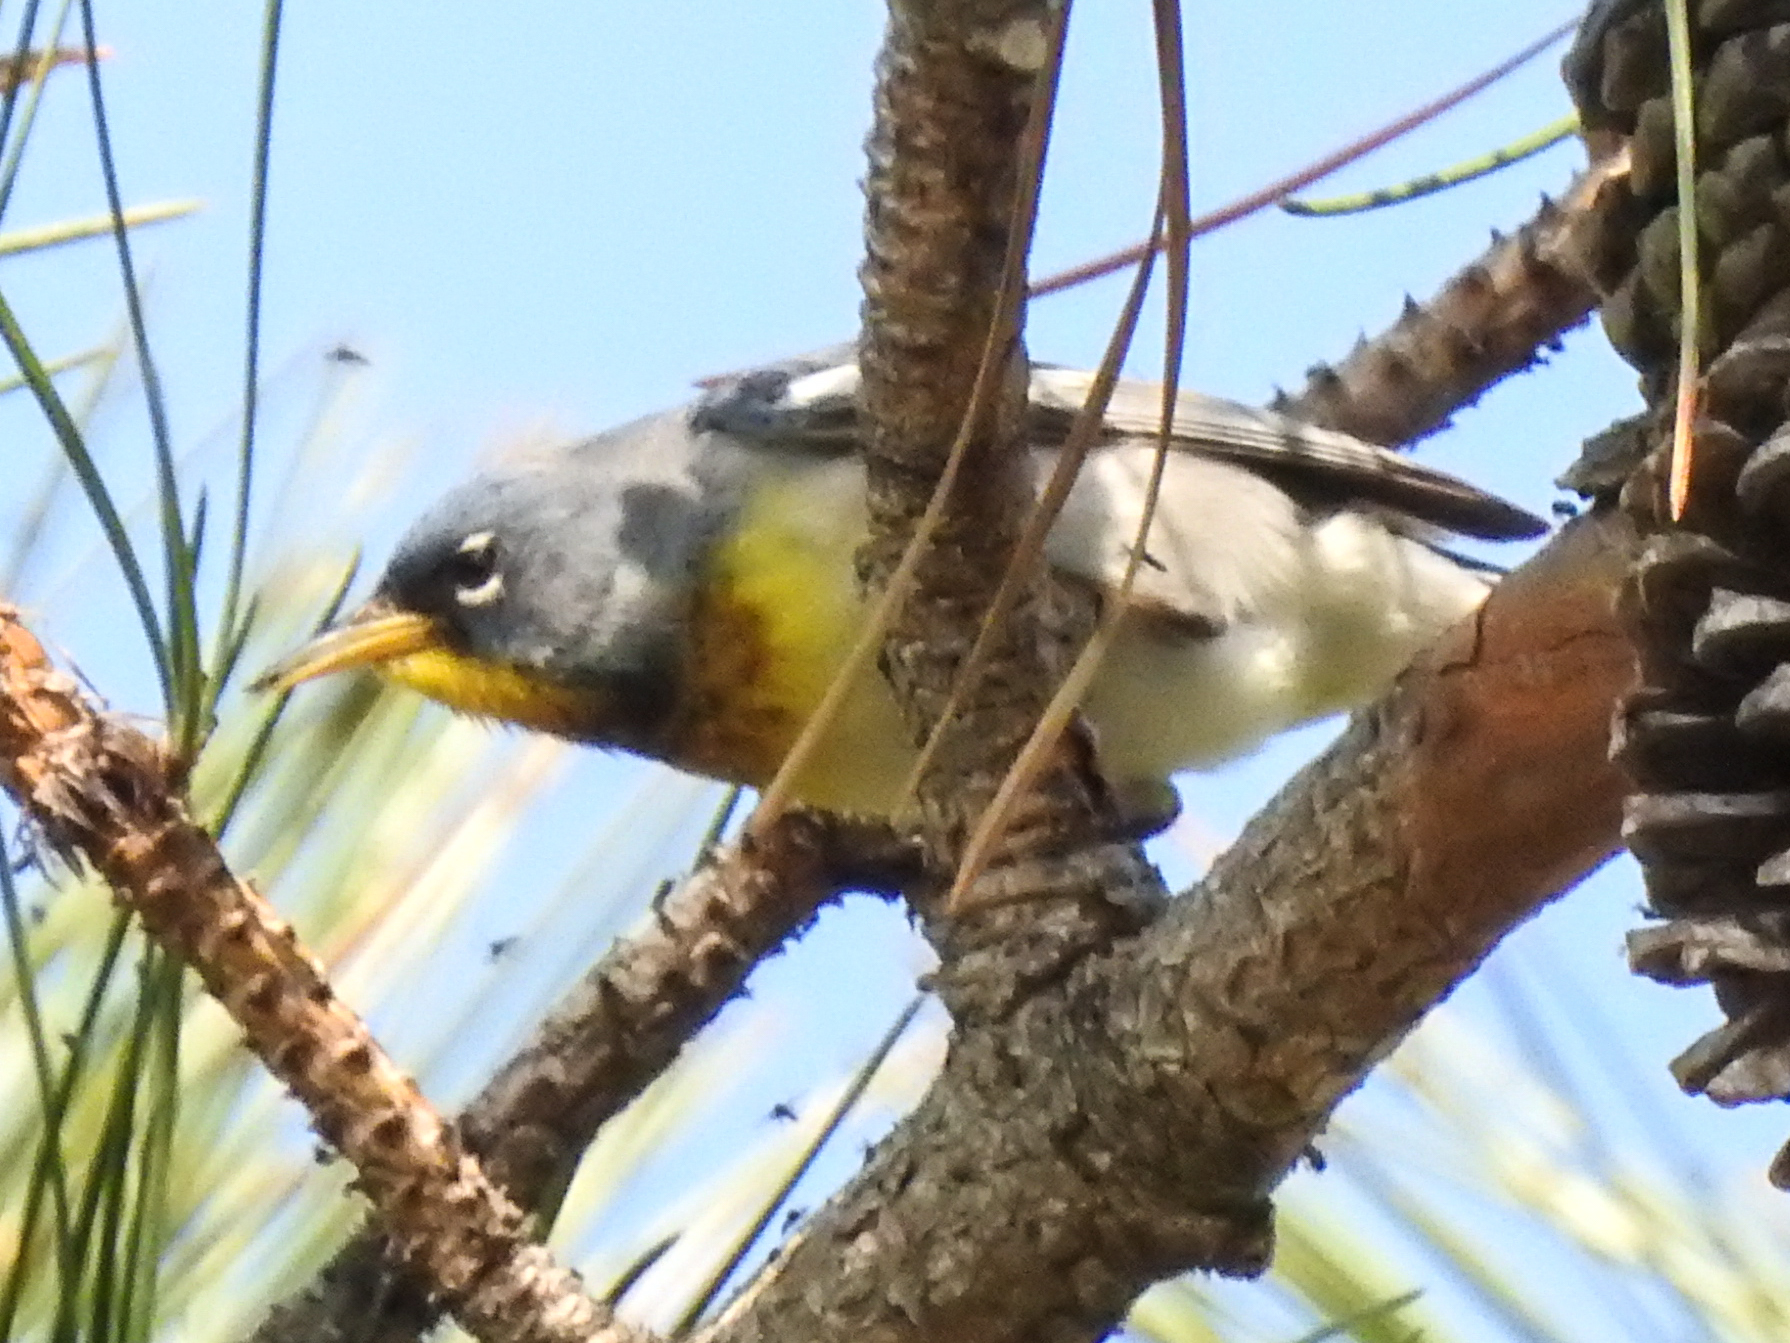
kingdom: Animalia
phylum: Chordata
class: Aves
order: Passeriformes
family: Parulidae
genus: Setophaga
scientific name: Setophaga americana
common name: Northern parula
